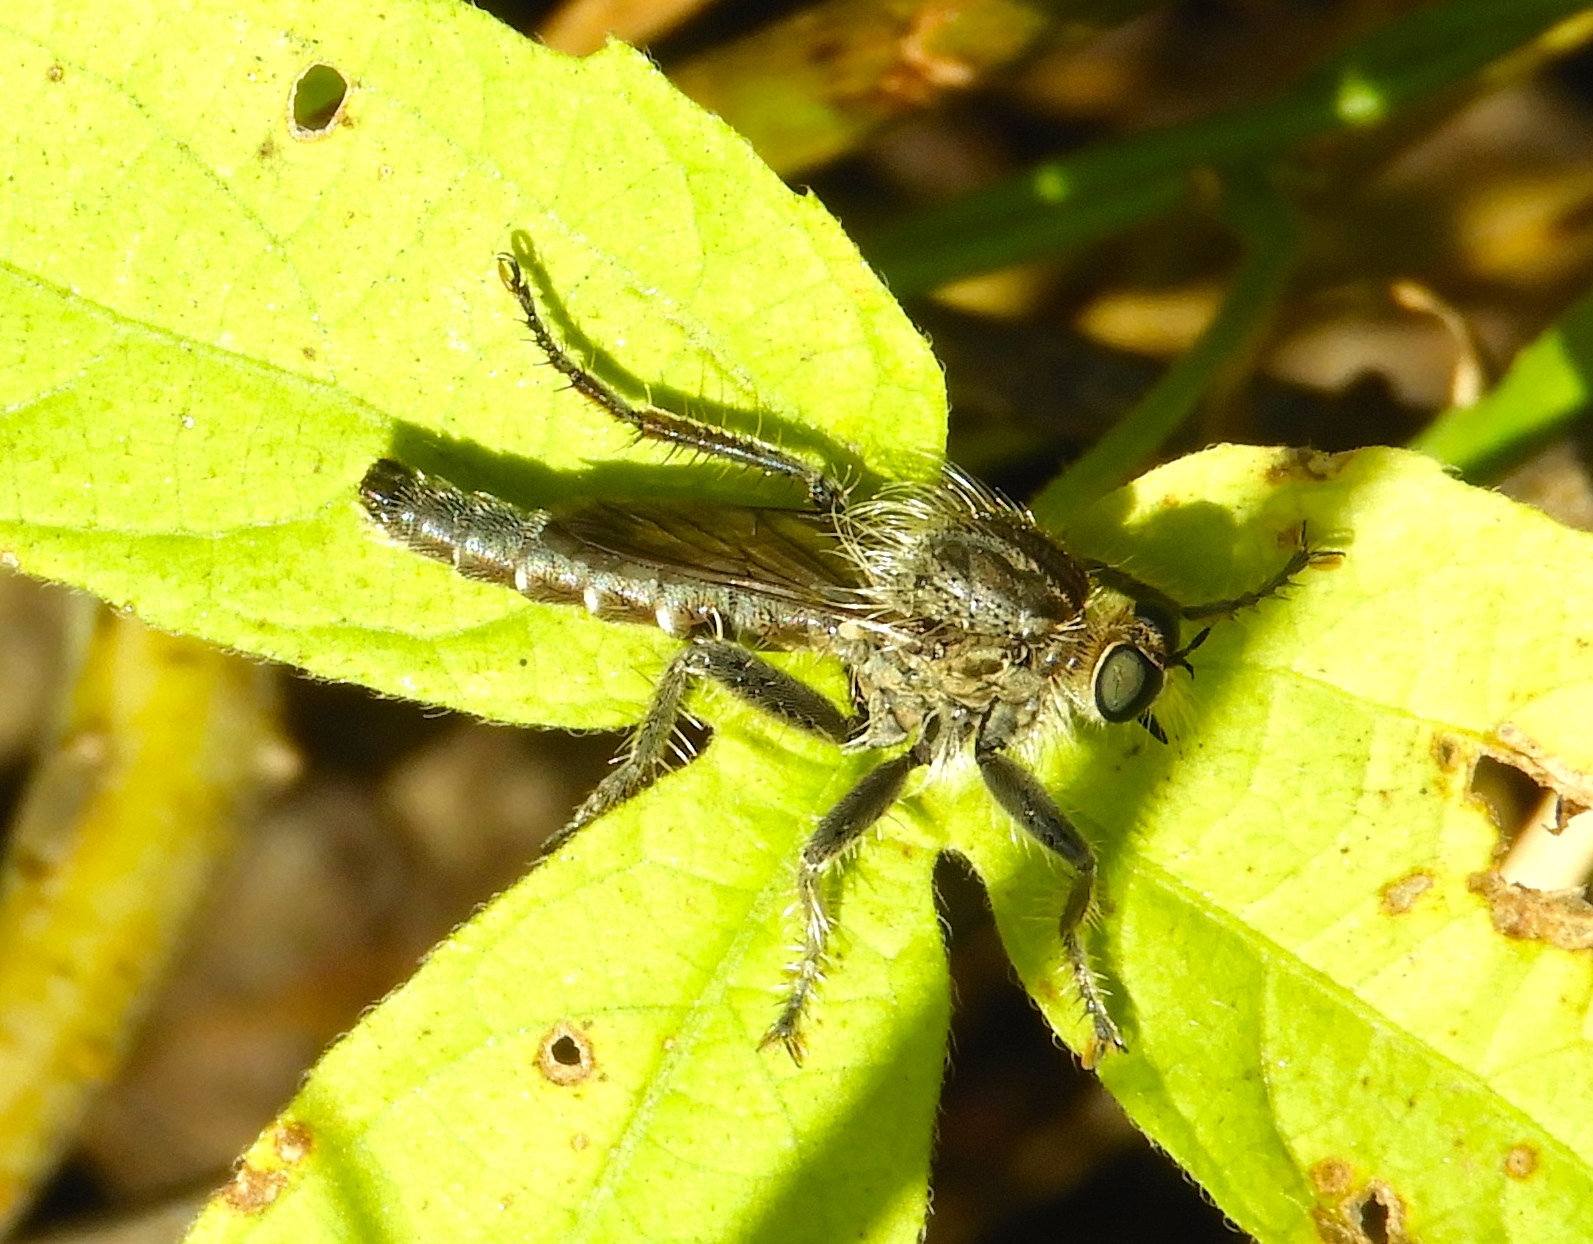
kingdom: Animalia
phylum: Arthropoda
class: Insecta
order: Diptera
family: Asilidae
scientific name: Asilidae
